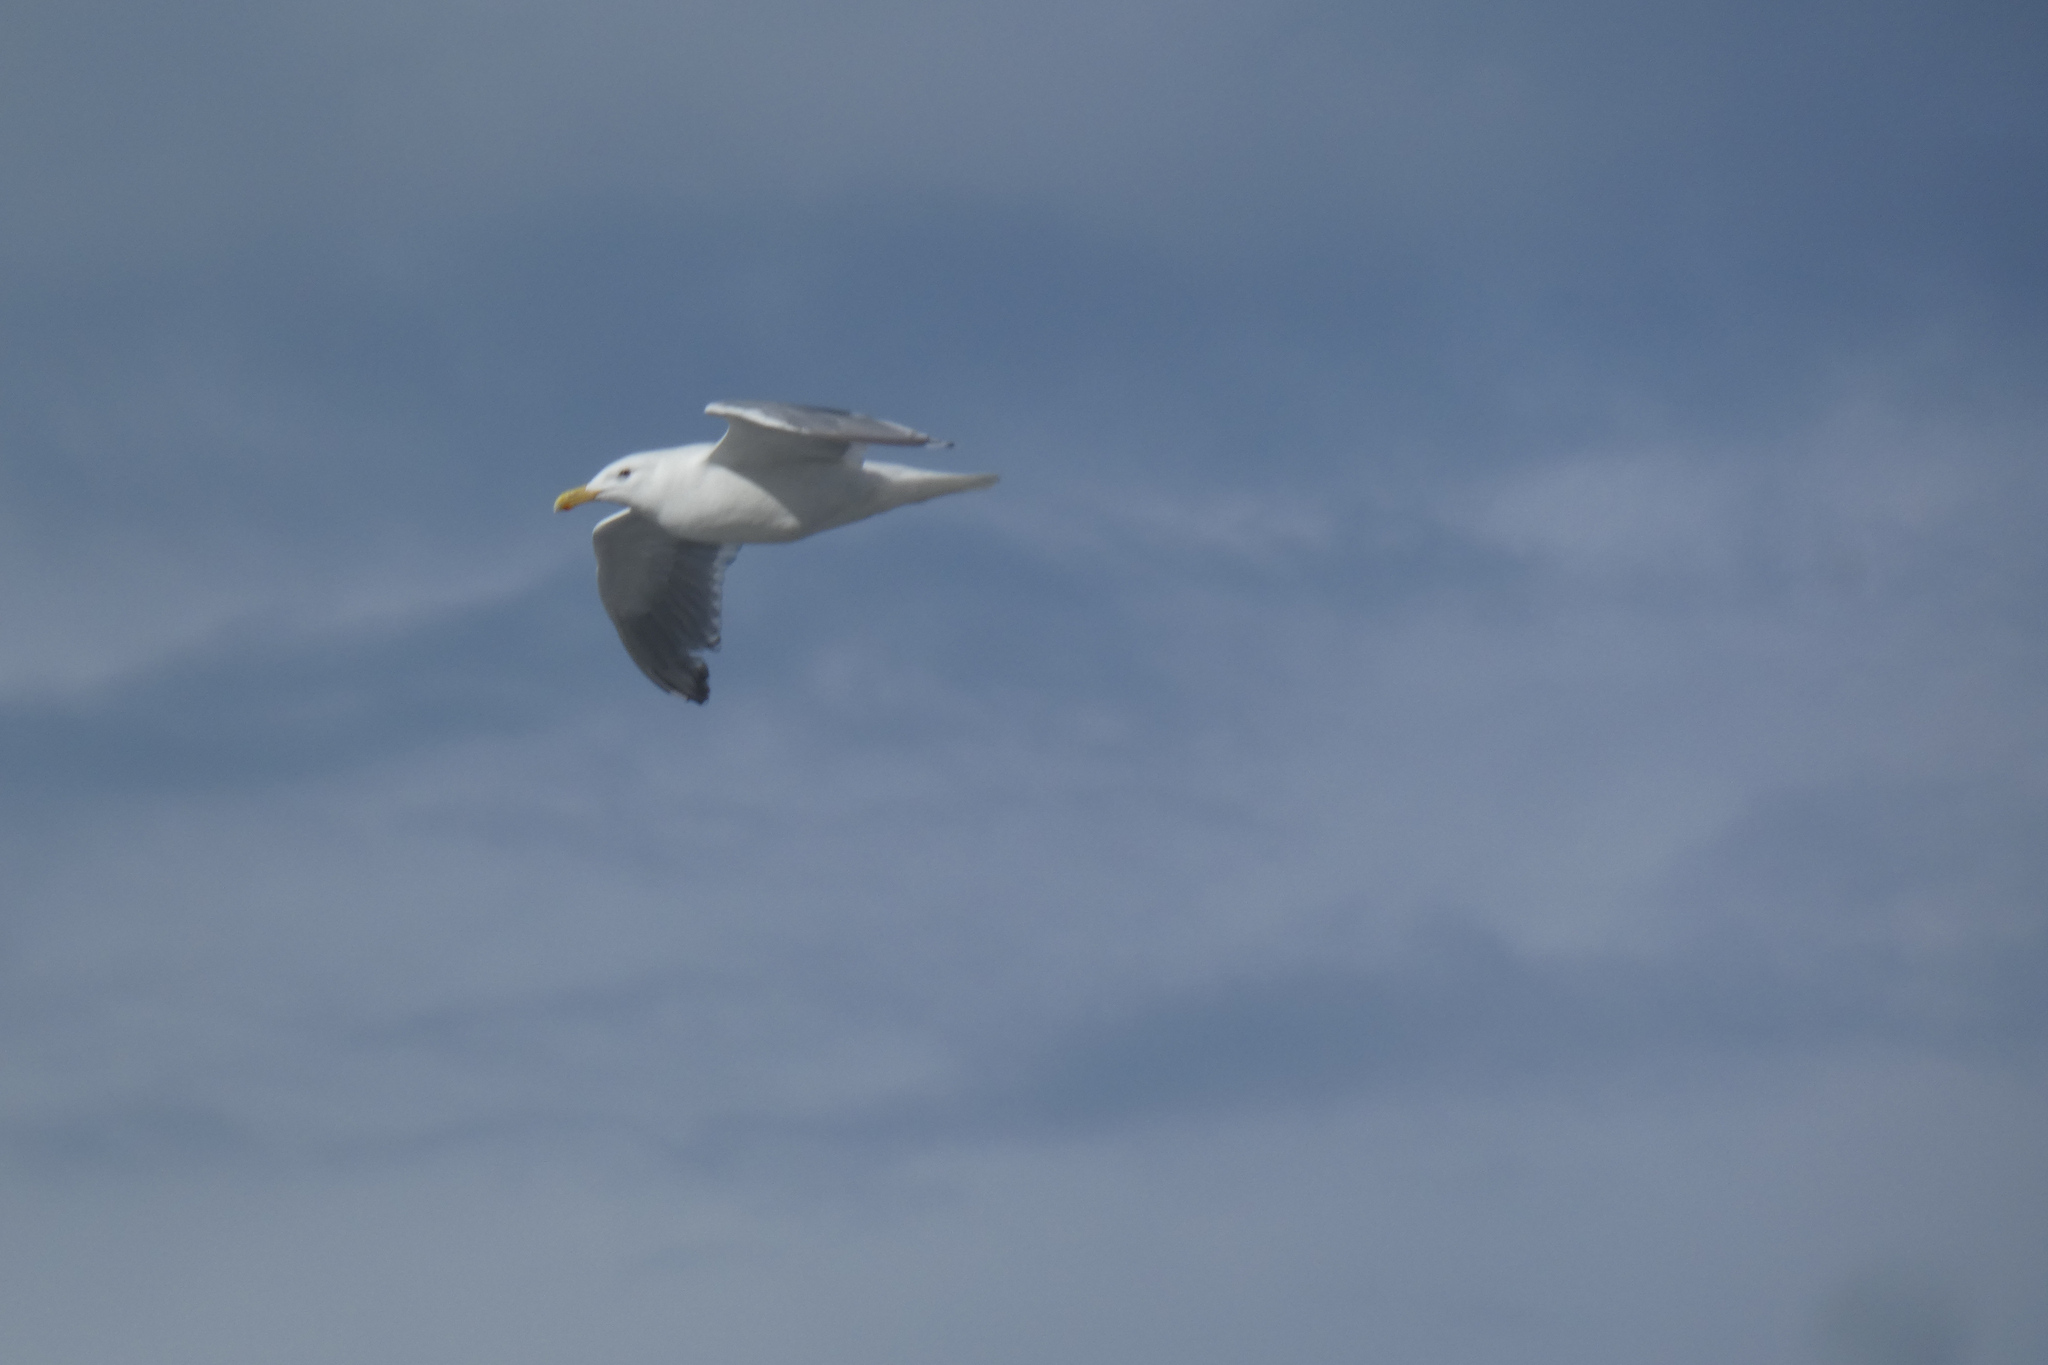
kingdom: Animalia
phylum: Chordata
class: Aves
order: Charadriiformes
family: Laridae
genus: Larus
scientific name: Larus
